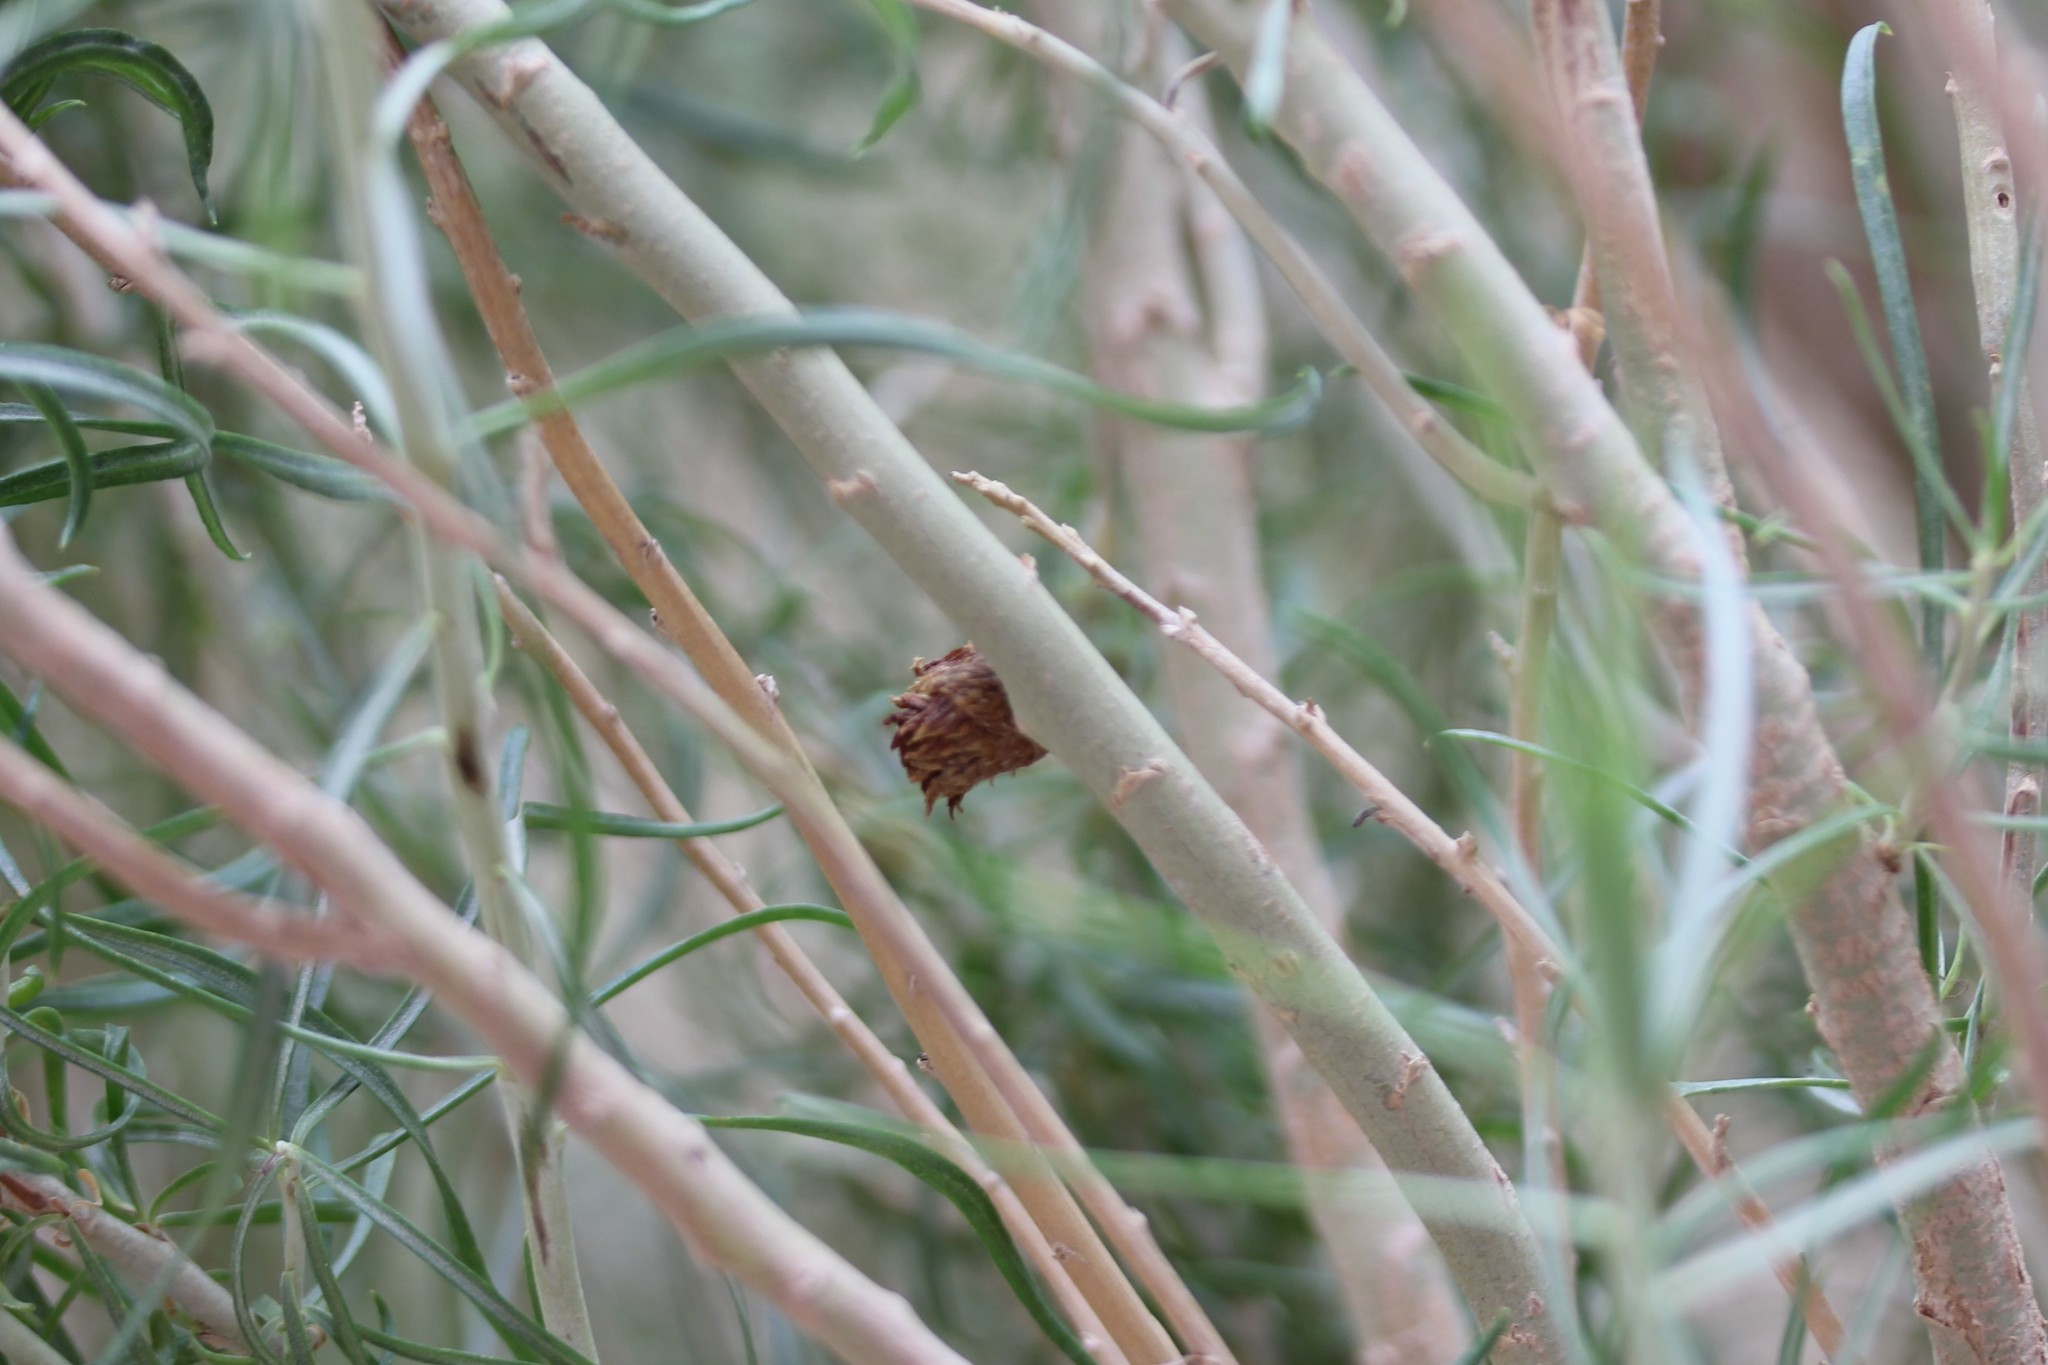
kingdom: Animalia
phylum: Arthropoda
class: Insecta
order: Diptera
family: Cecidomyiidae
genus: Rhopalomyia
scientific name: Rhopalomyia ericameriae
